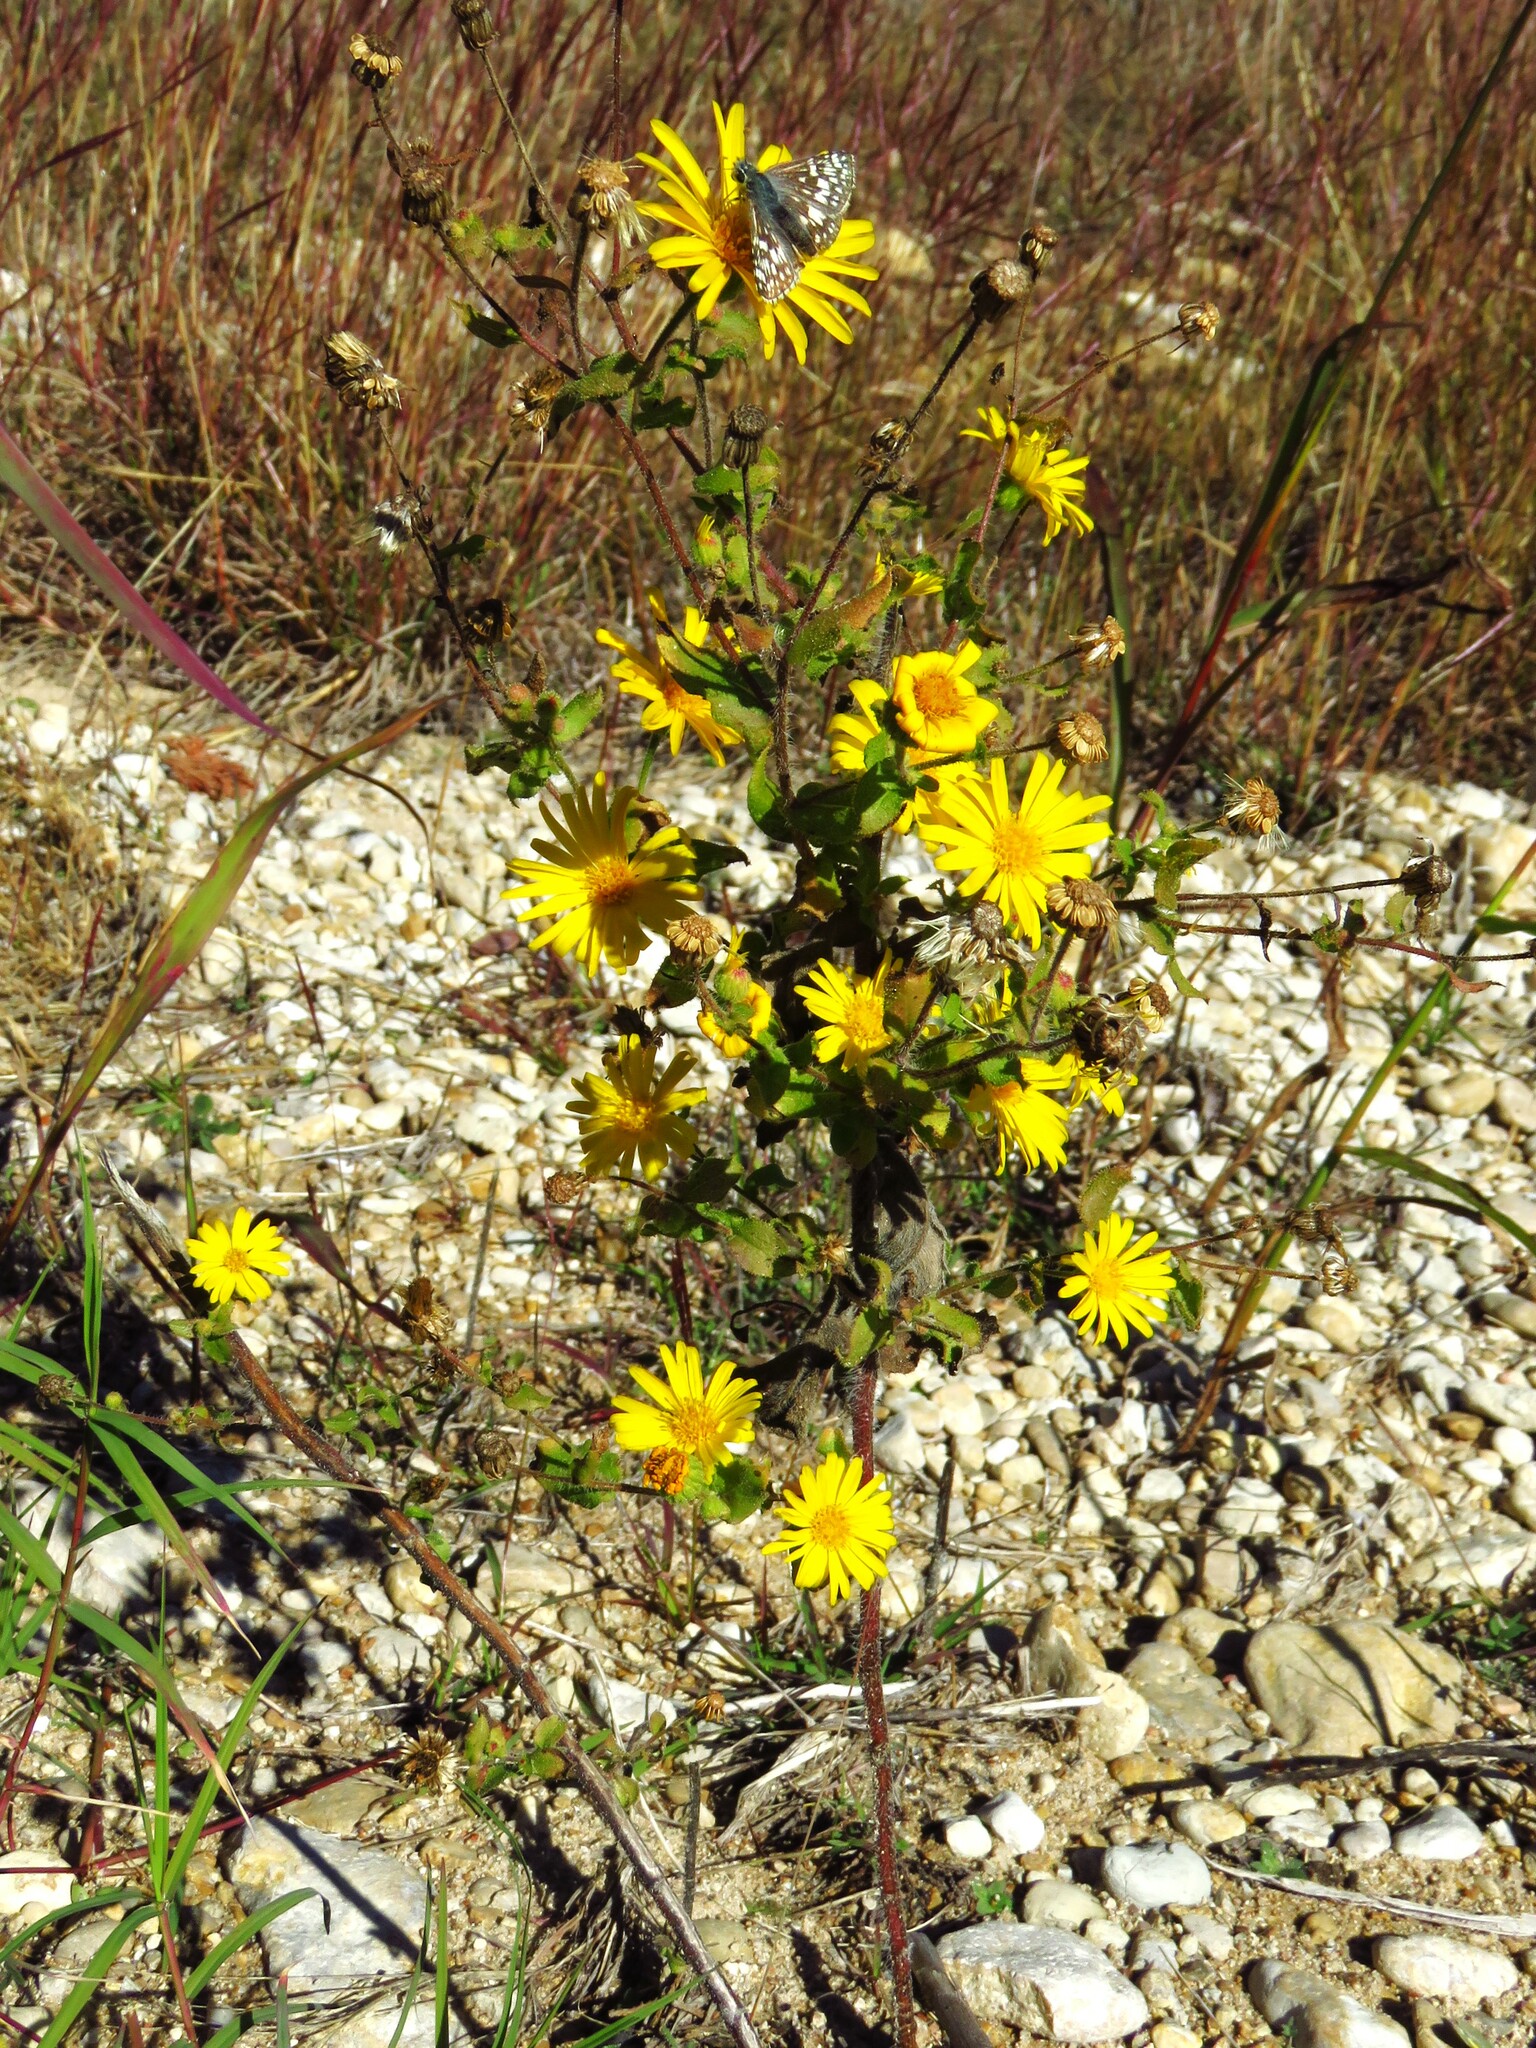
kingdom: Plantae
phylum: Tracheophyta
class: Magnoliopsida
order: Asterales
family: Asteraceae
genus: Heterotheca
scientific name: Heterotheca subaxillaris
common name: Camphorweed
